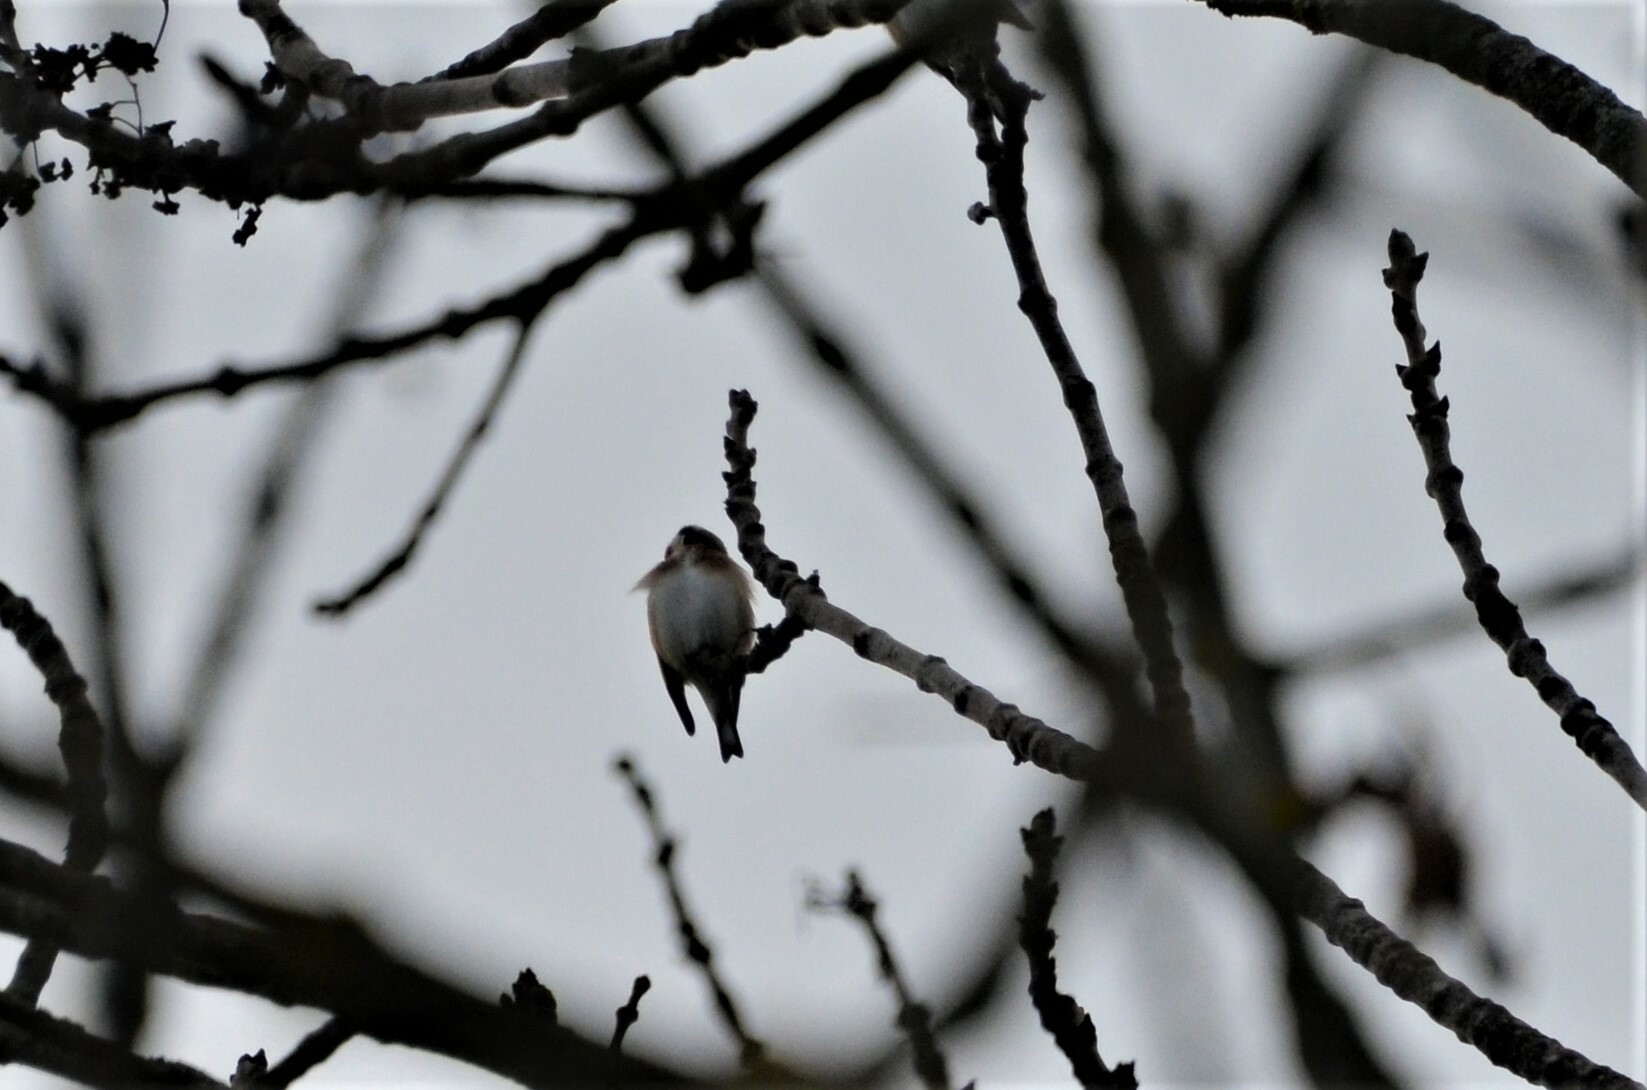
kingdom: Animalia
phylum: Chordata
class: Aves
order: Passeriformes
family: Fringillidae
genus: Carduelis
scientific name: Carduelis carduelis
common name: European goldfinch
